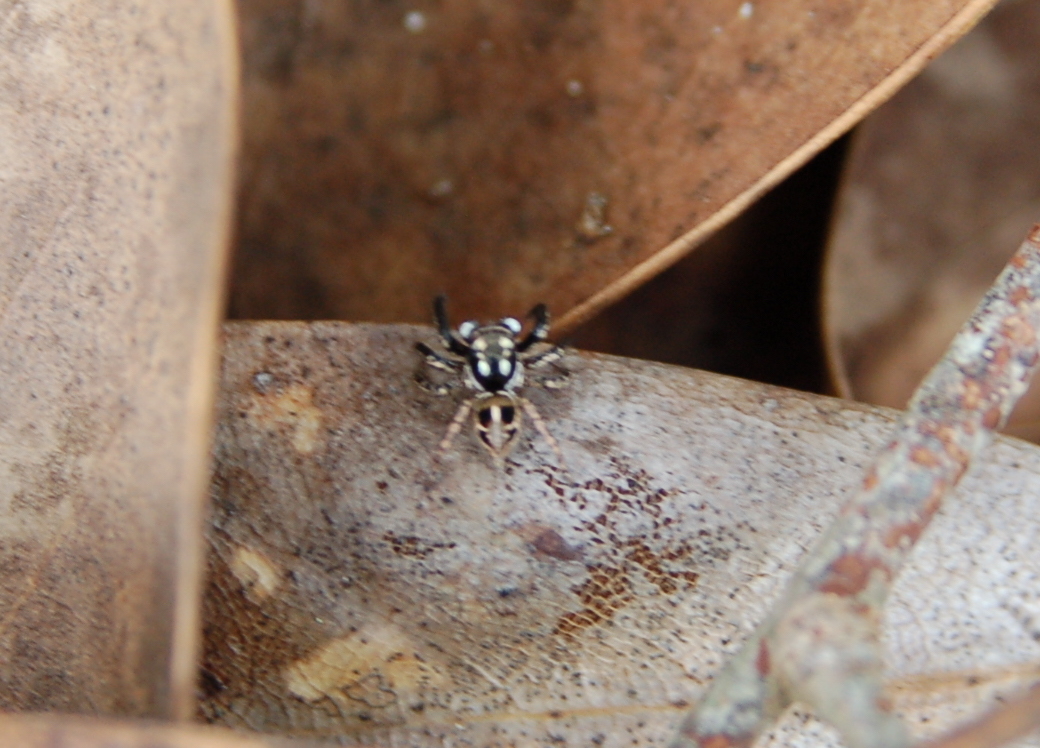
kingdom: Animalia
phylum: Arthropoda
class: Arachnida
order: Araneae
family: Salticidae
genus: Anasaitis
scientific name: Anasaitis canosa
